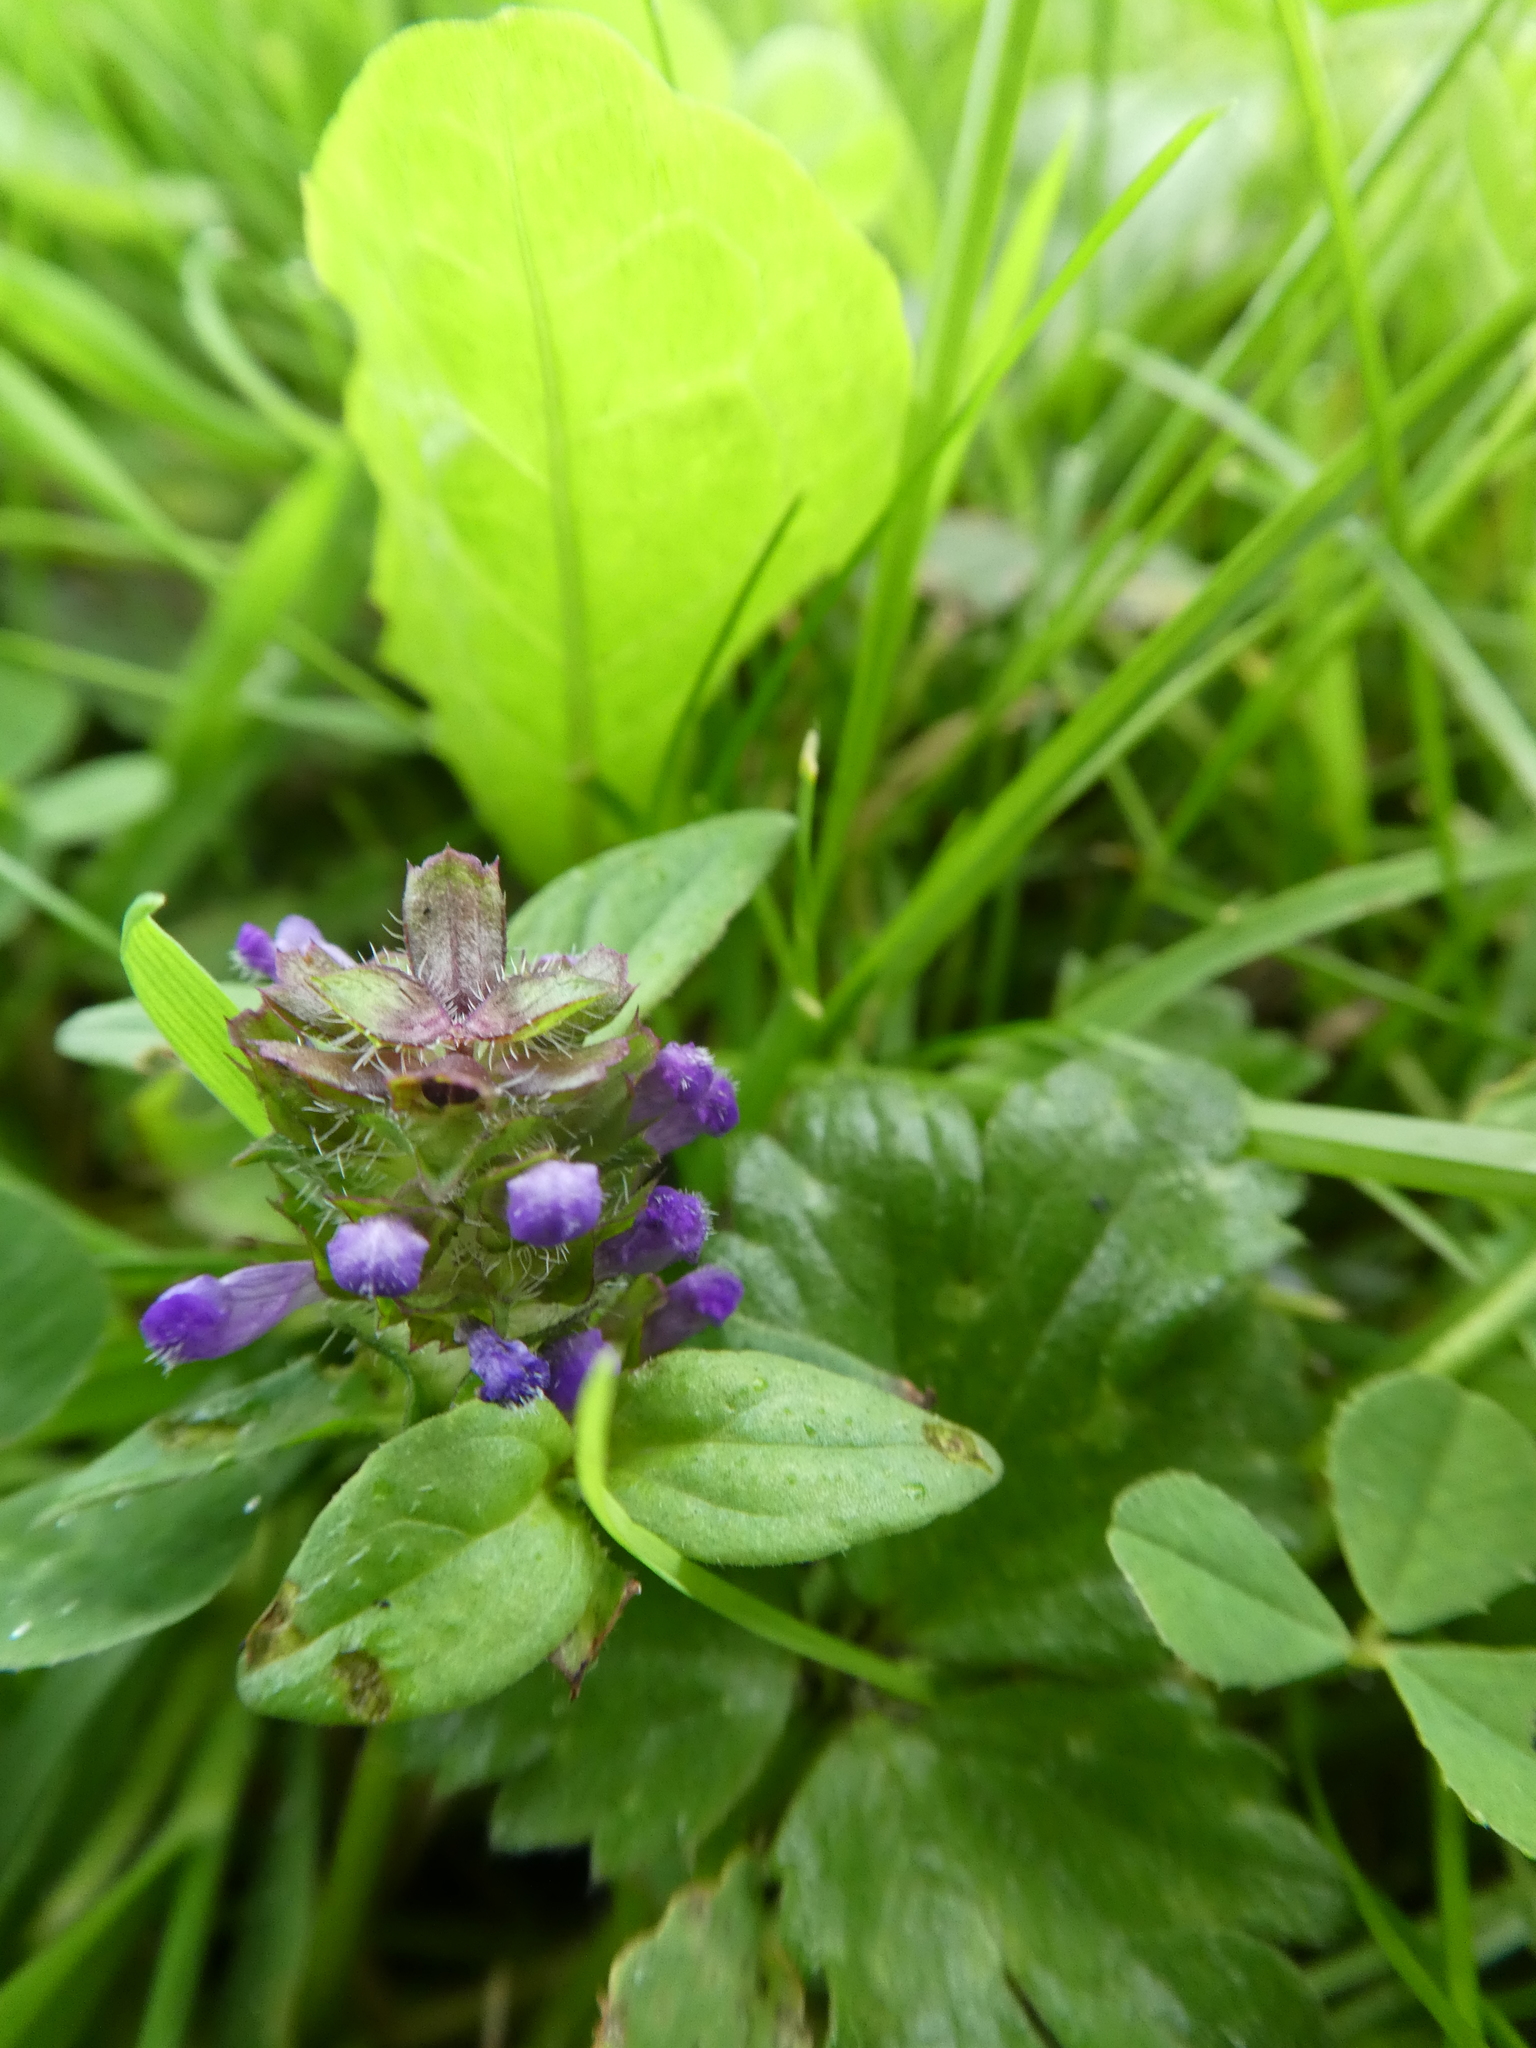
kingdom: Plantae
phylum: Tracheophyta
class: Magnoliopsida
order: Lamiales
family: Lamiaceae
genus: Prunella
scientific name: Prunella vulgaris
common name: Heal-all
